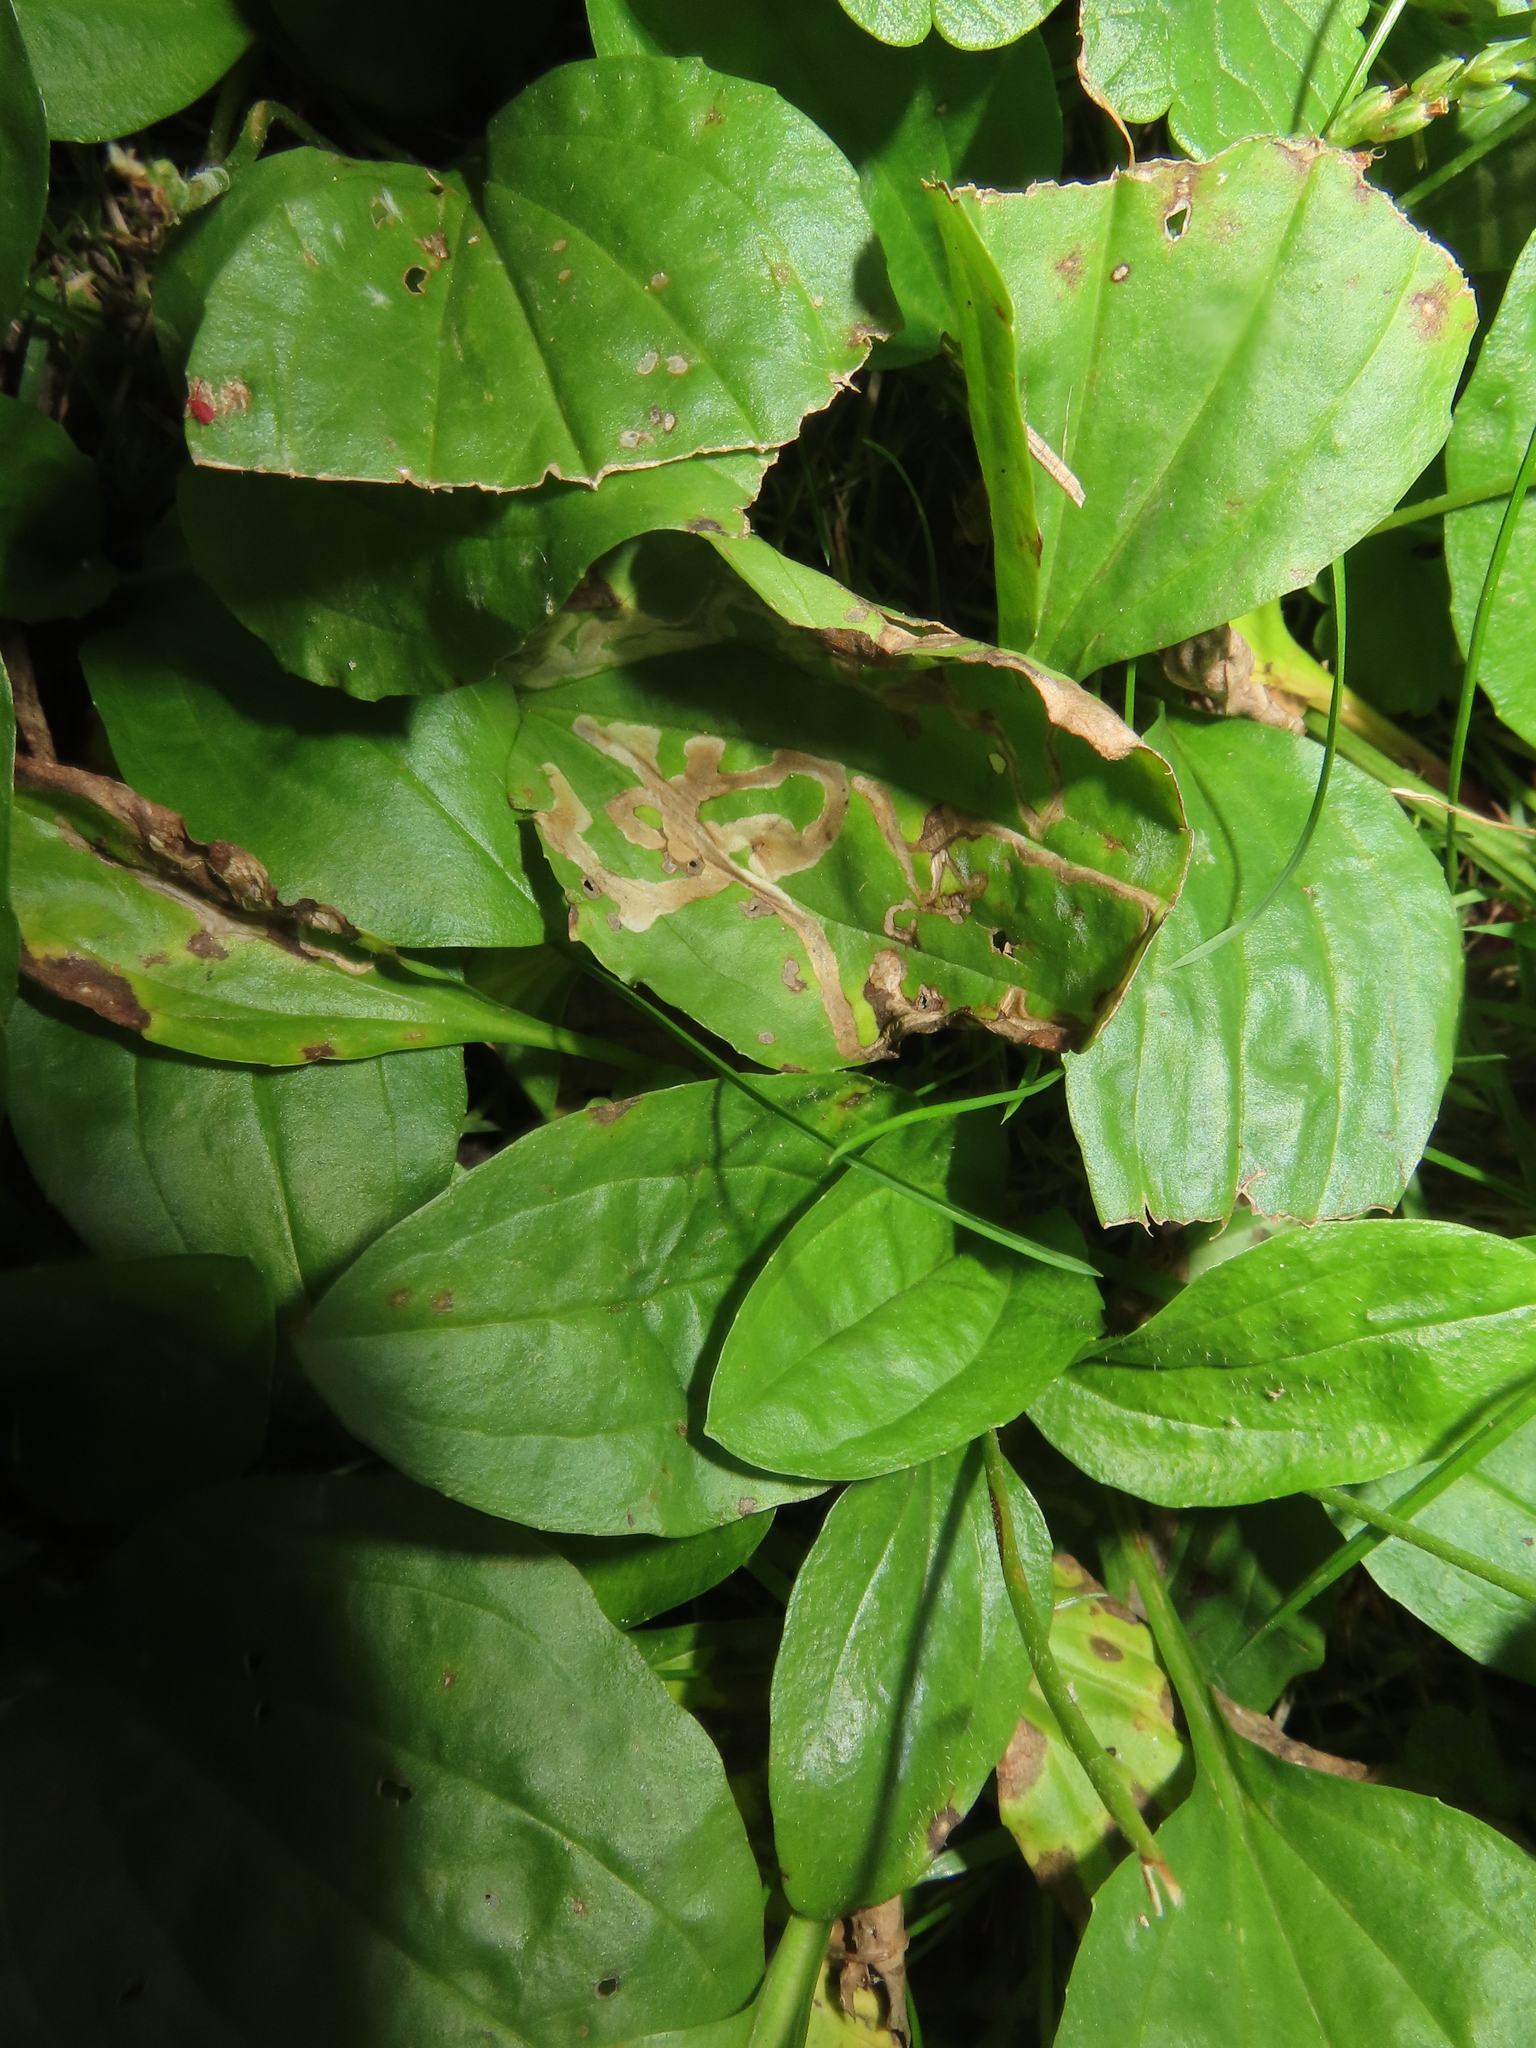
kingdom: Animalia
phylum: Arthropoda
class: Insecta
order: Coleoptera
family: Chrysomelidae
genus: Dibolia
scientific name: Dibolia borealis
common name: Northern plantain flea beetle
